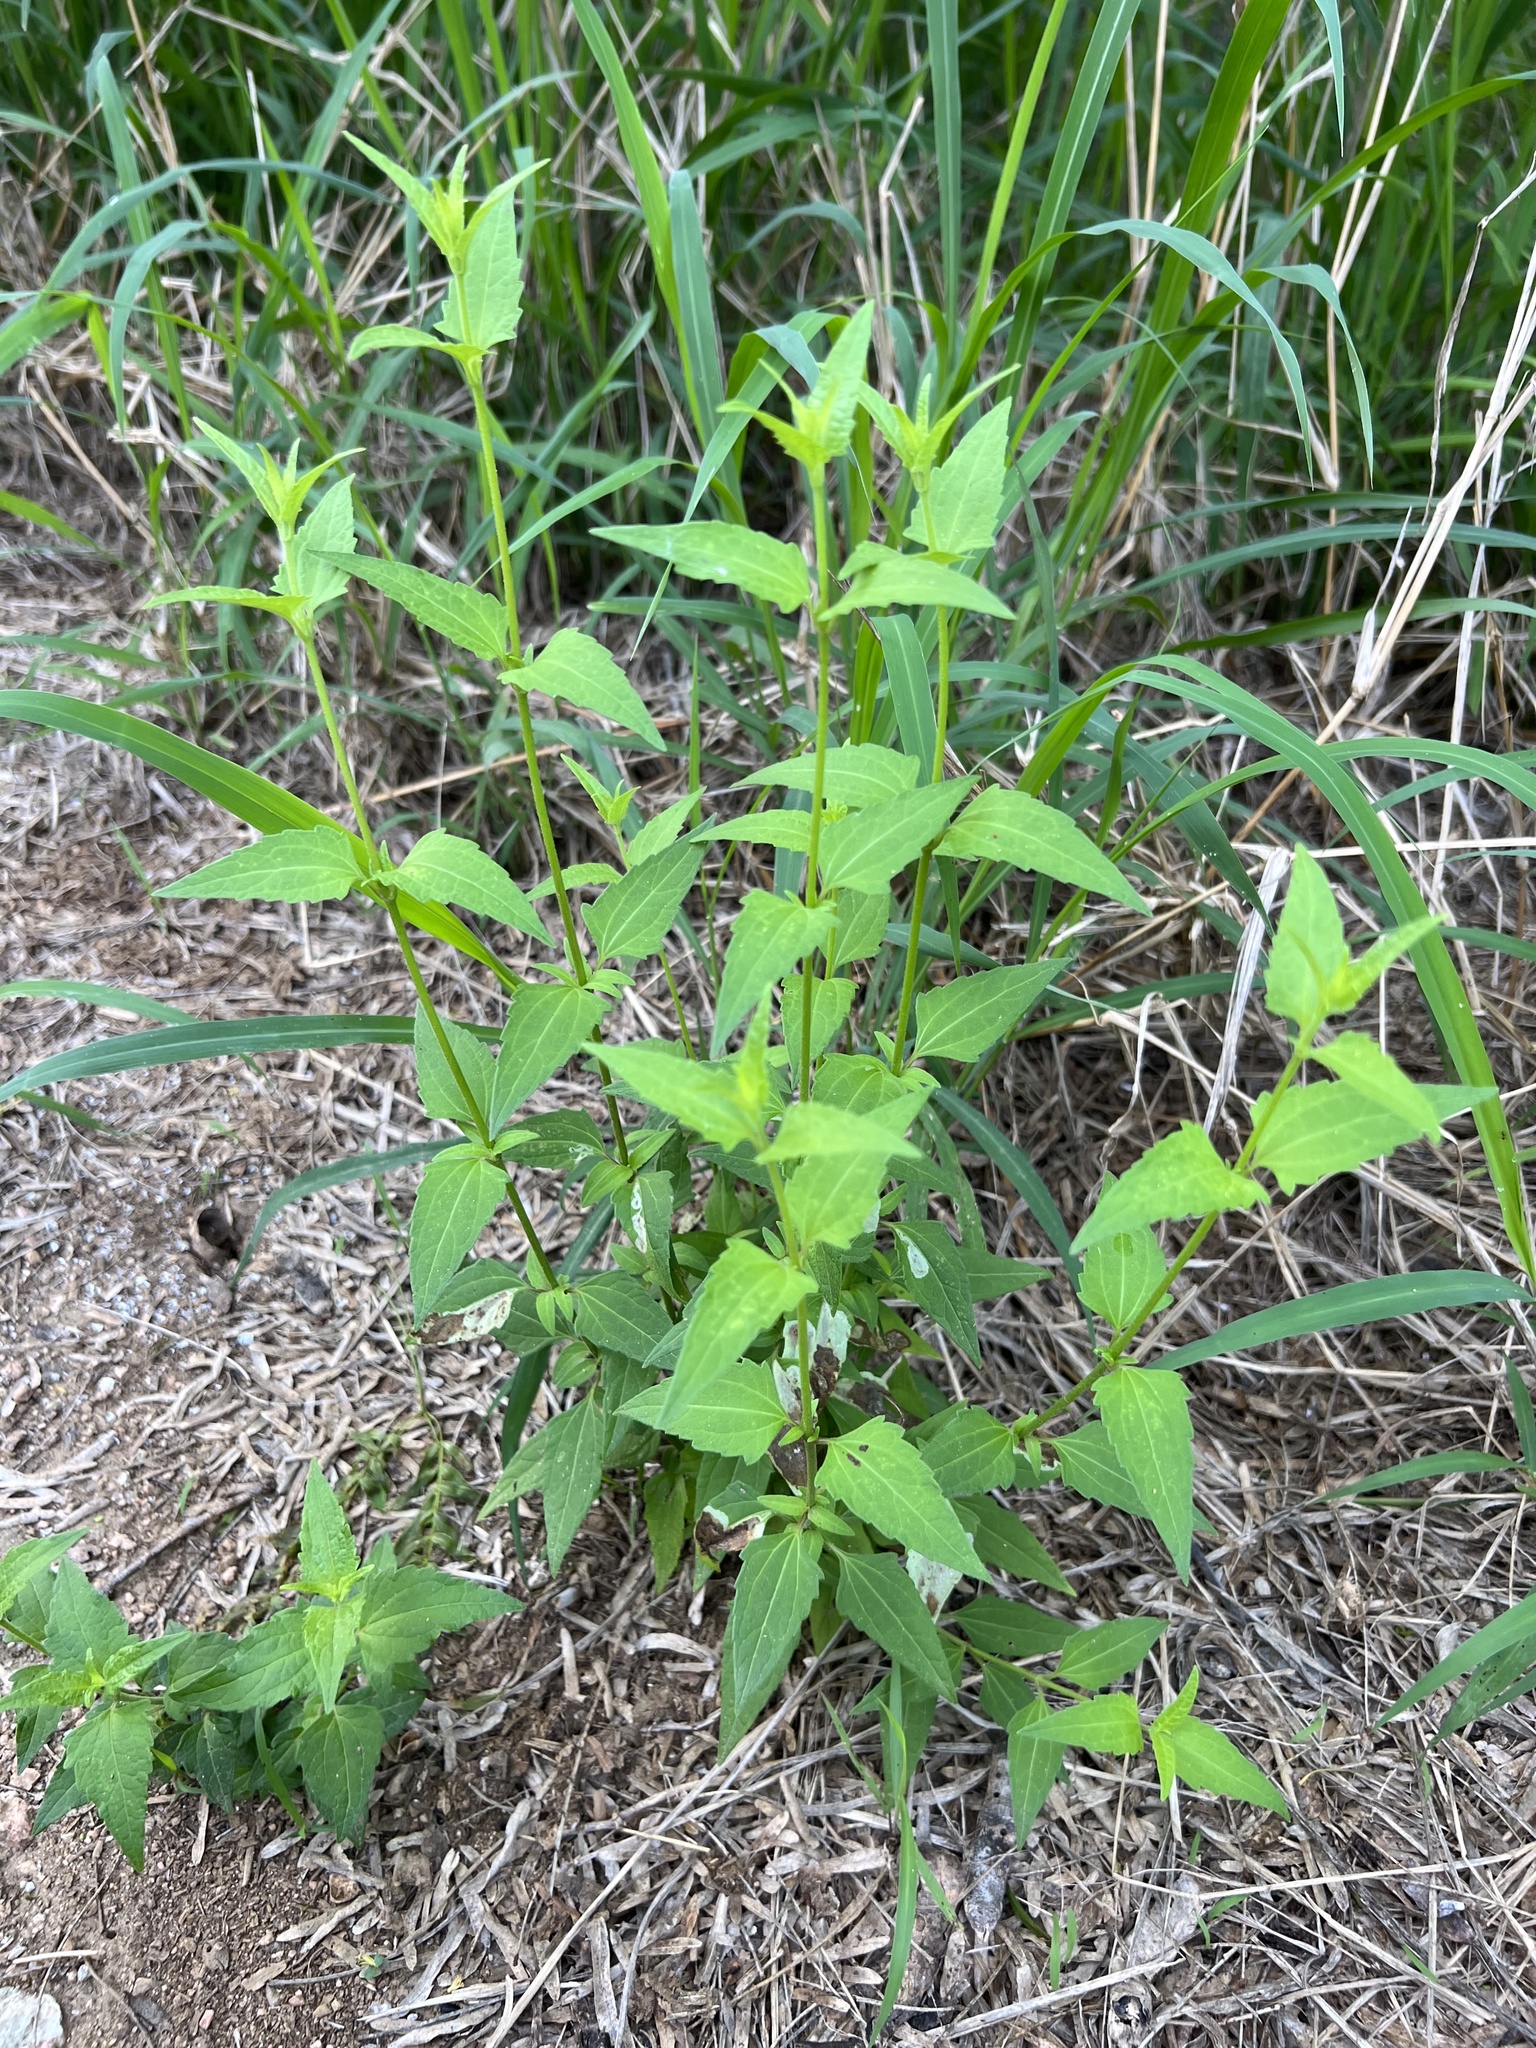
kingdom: Plantae
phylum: Tracheophyta
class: Magnoliopsida
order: Asterales
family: Asteraceae
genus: Chromolaena
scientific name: Chromolaena odorata
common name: Siamweed
